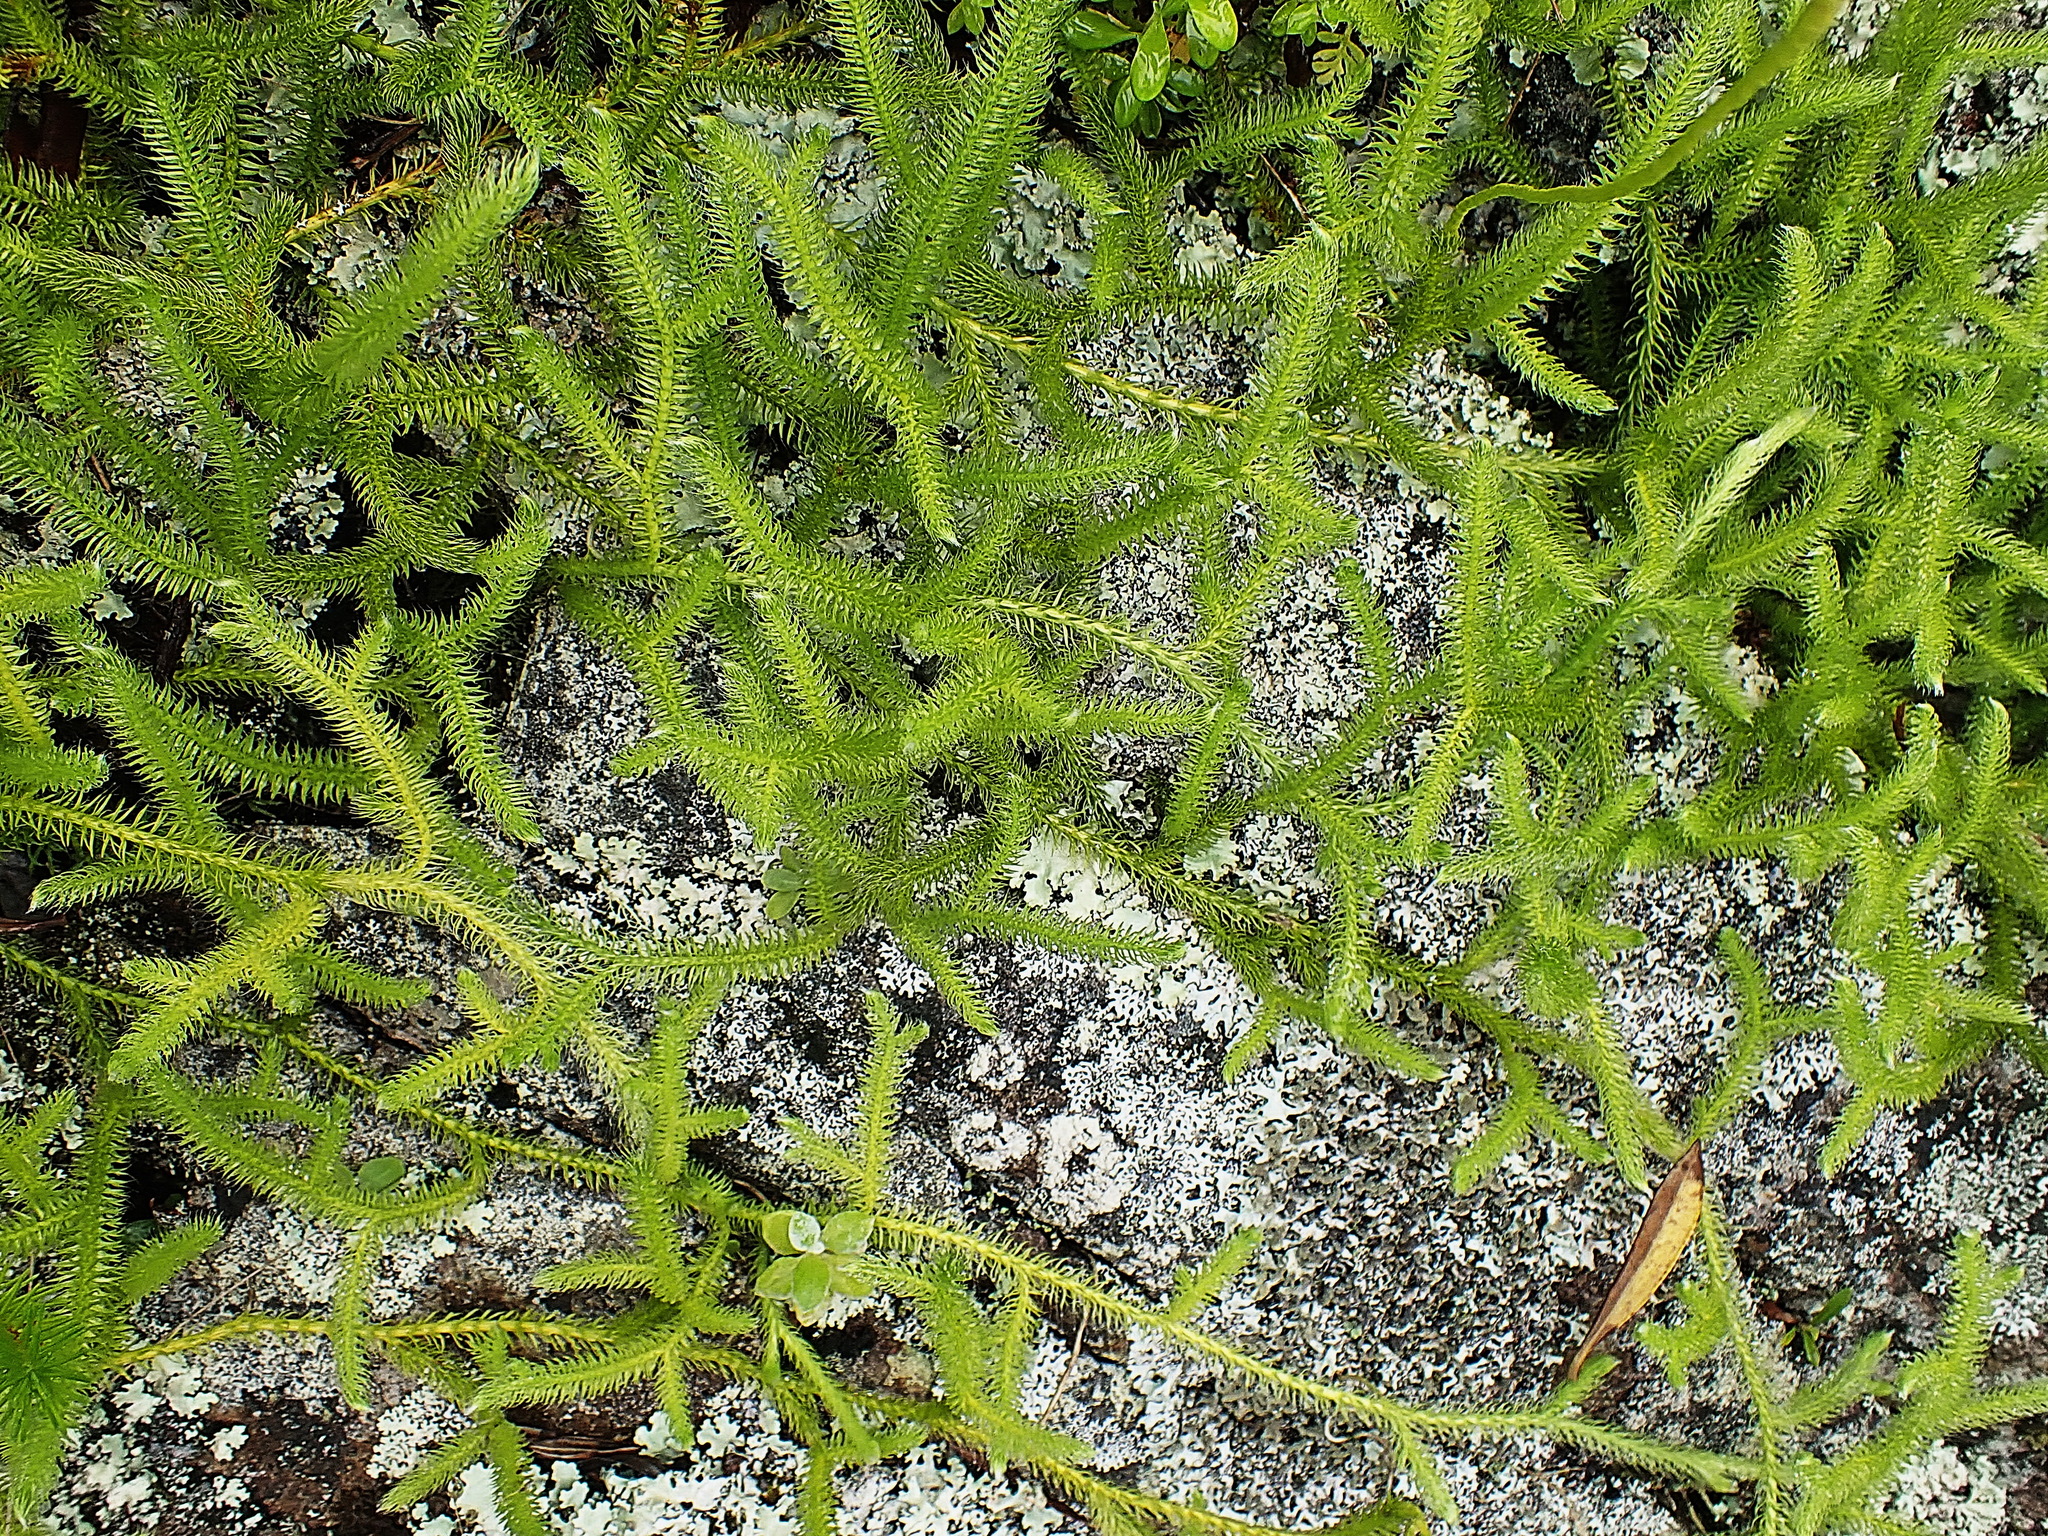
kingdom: Plantae
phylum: Tracheophyta
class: Lycopodiopsida
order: Lycopodiales
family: Lycopodiaceae
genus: Palhinhaea
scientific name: Palhinhaea cernua
